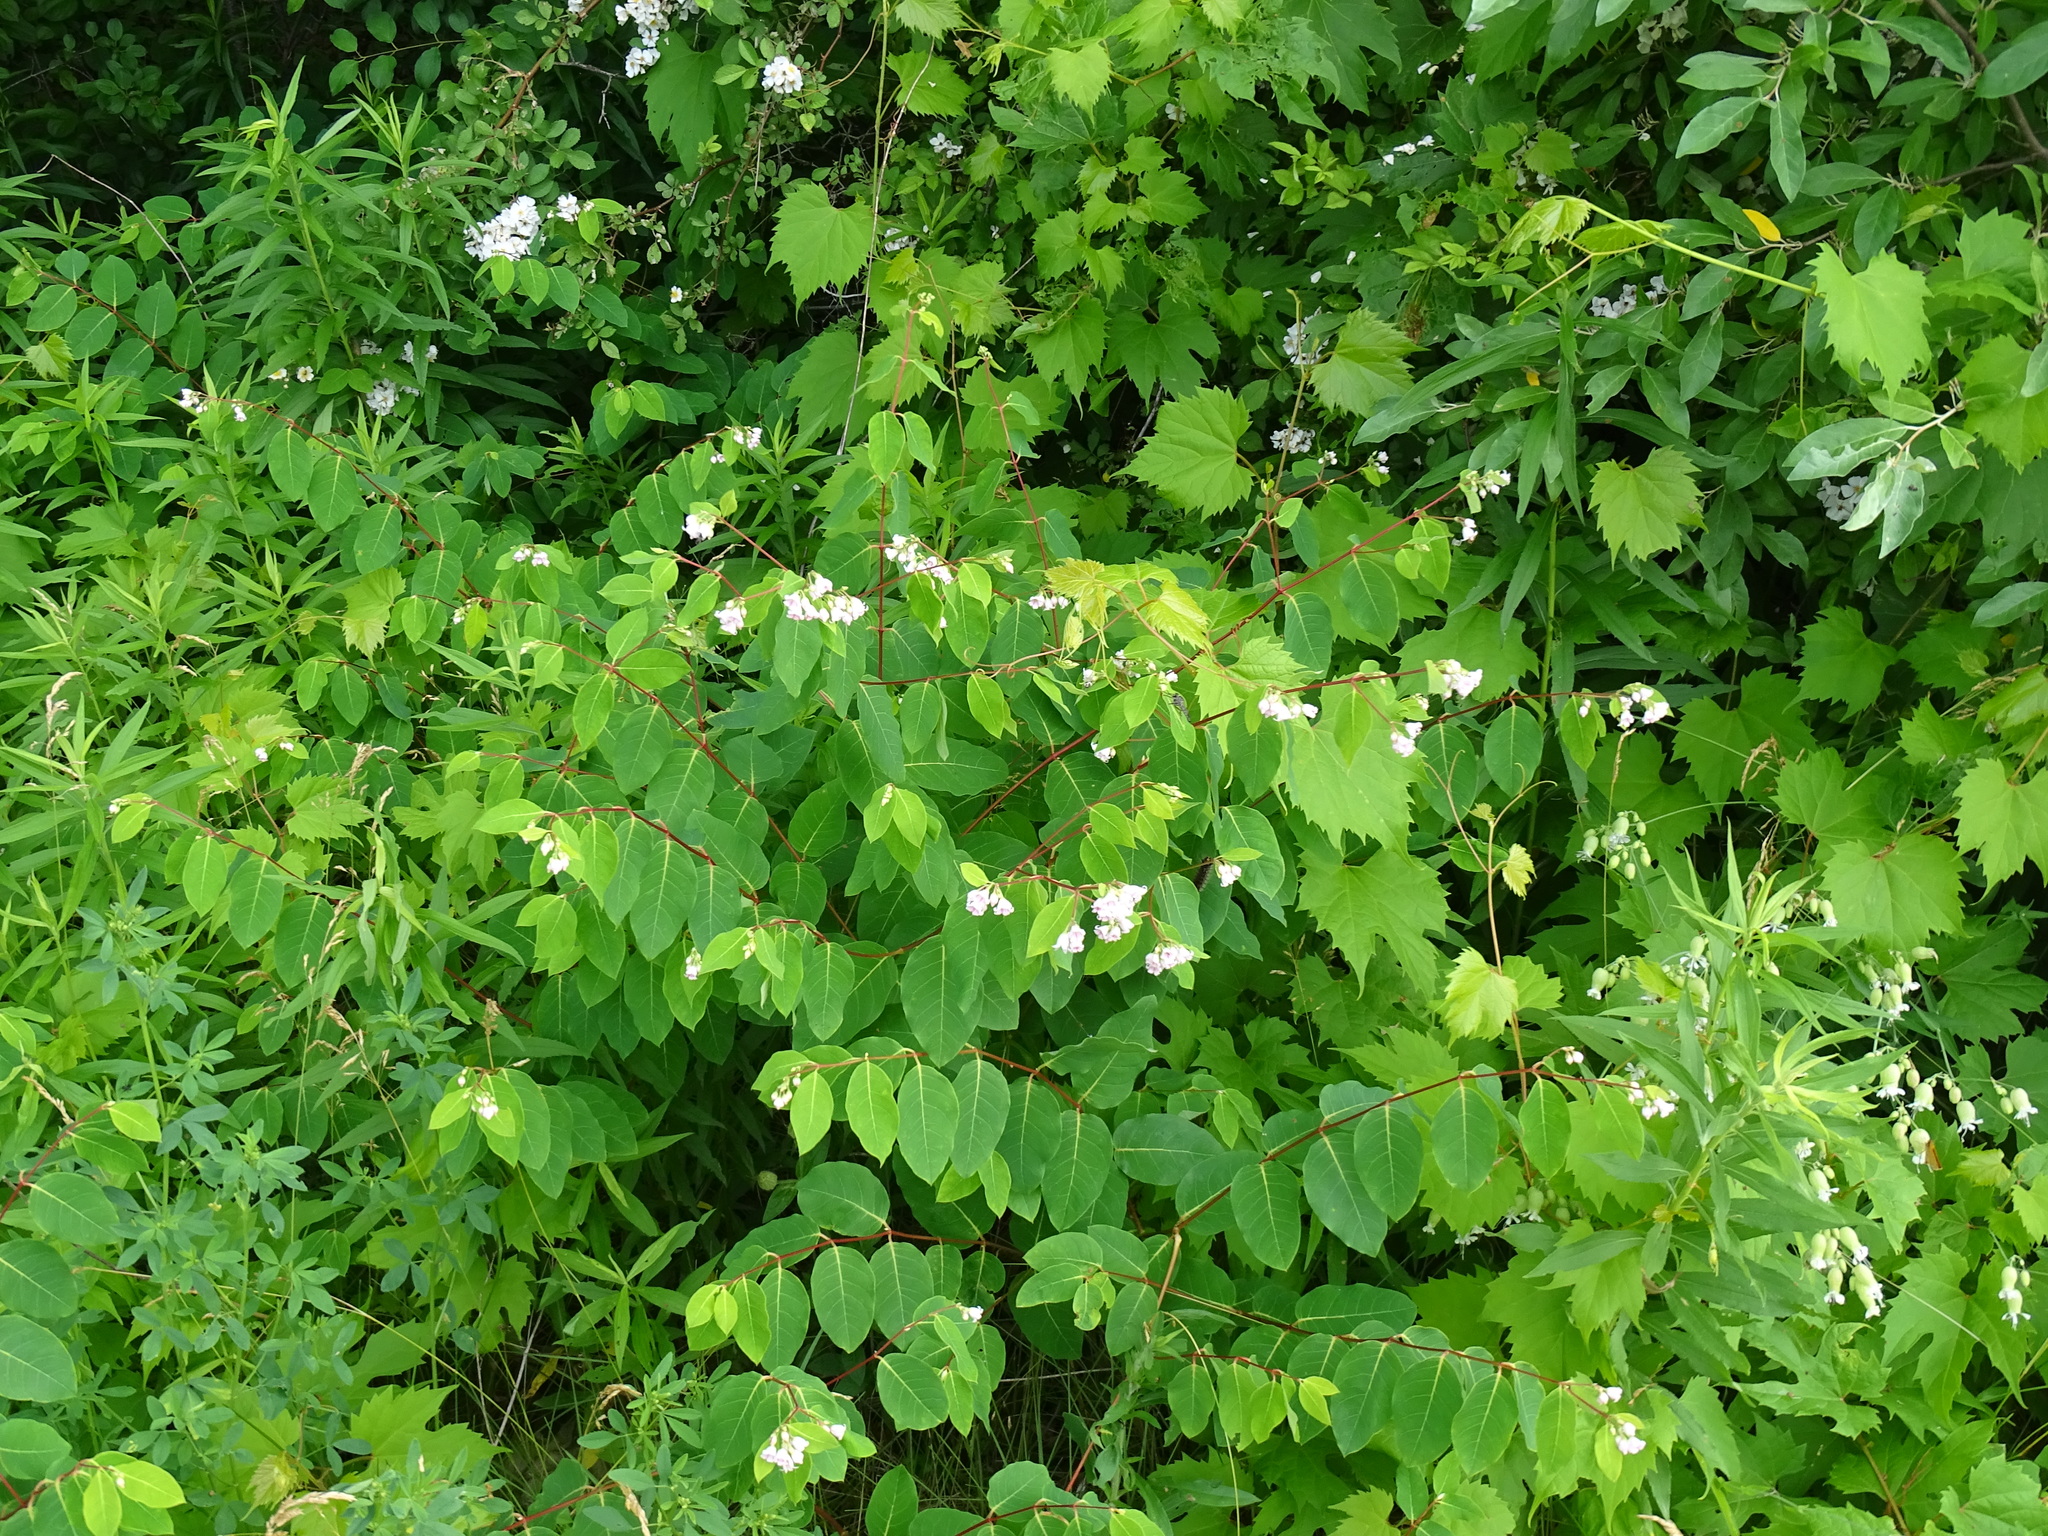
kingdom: Plantae
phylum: Tracheophyta
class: Magnoliopsida
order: Gentianales
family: Apocynaceae
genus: Apocynum
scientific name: Apocynum androsaemifolium
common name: Spreading dogbane
